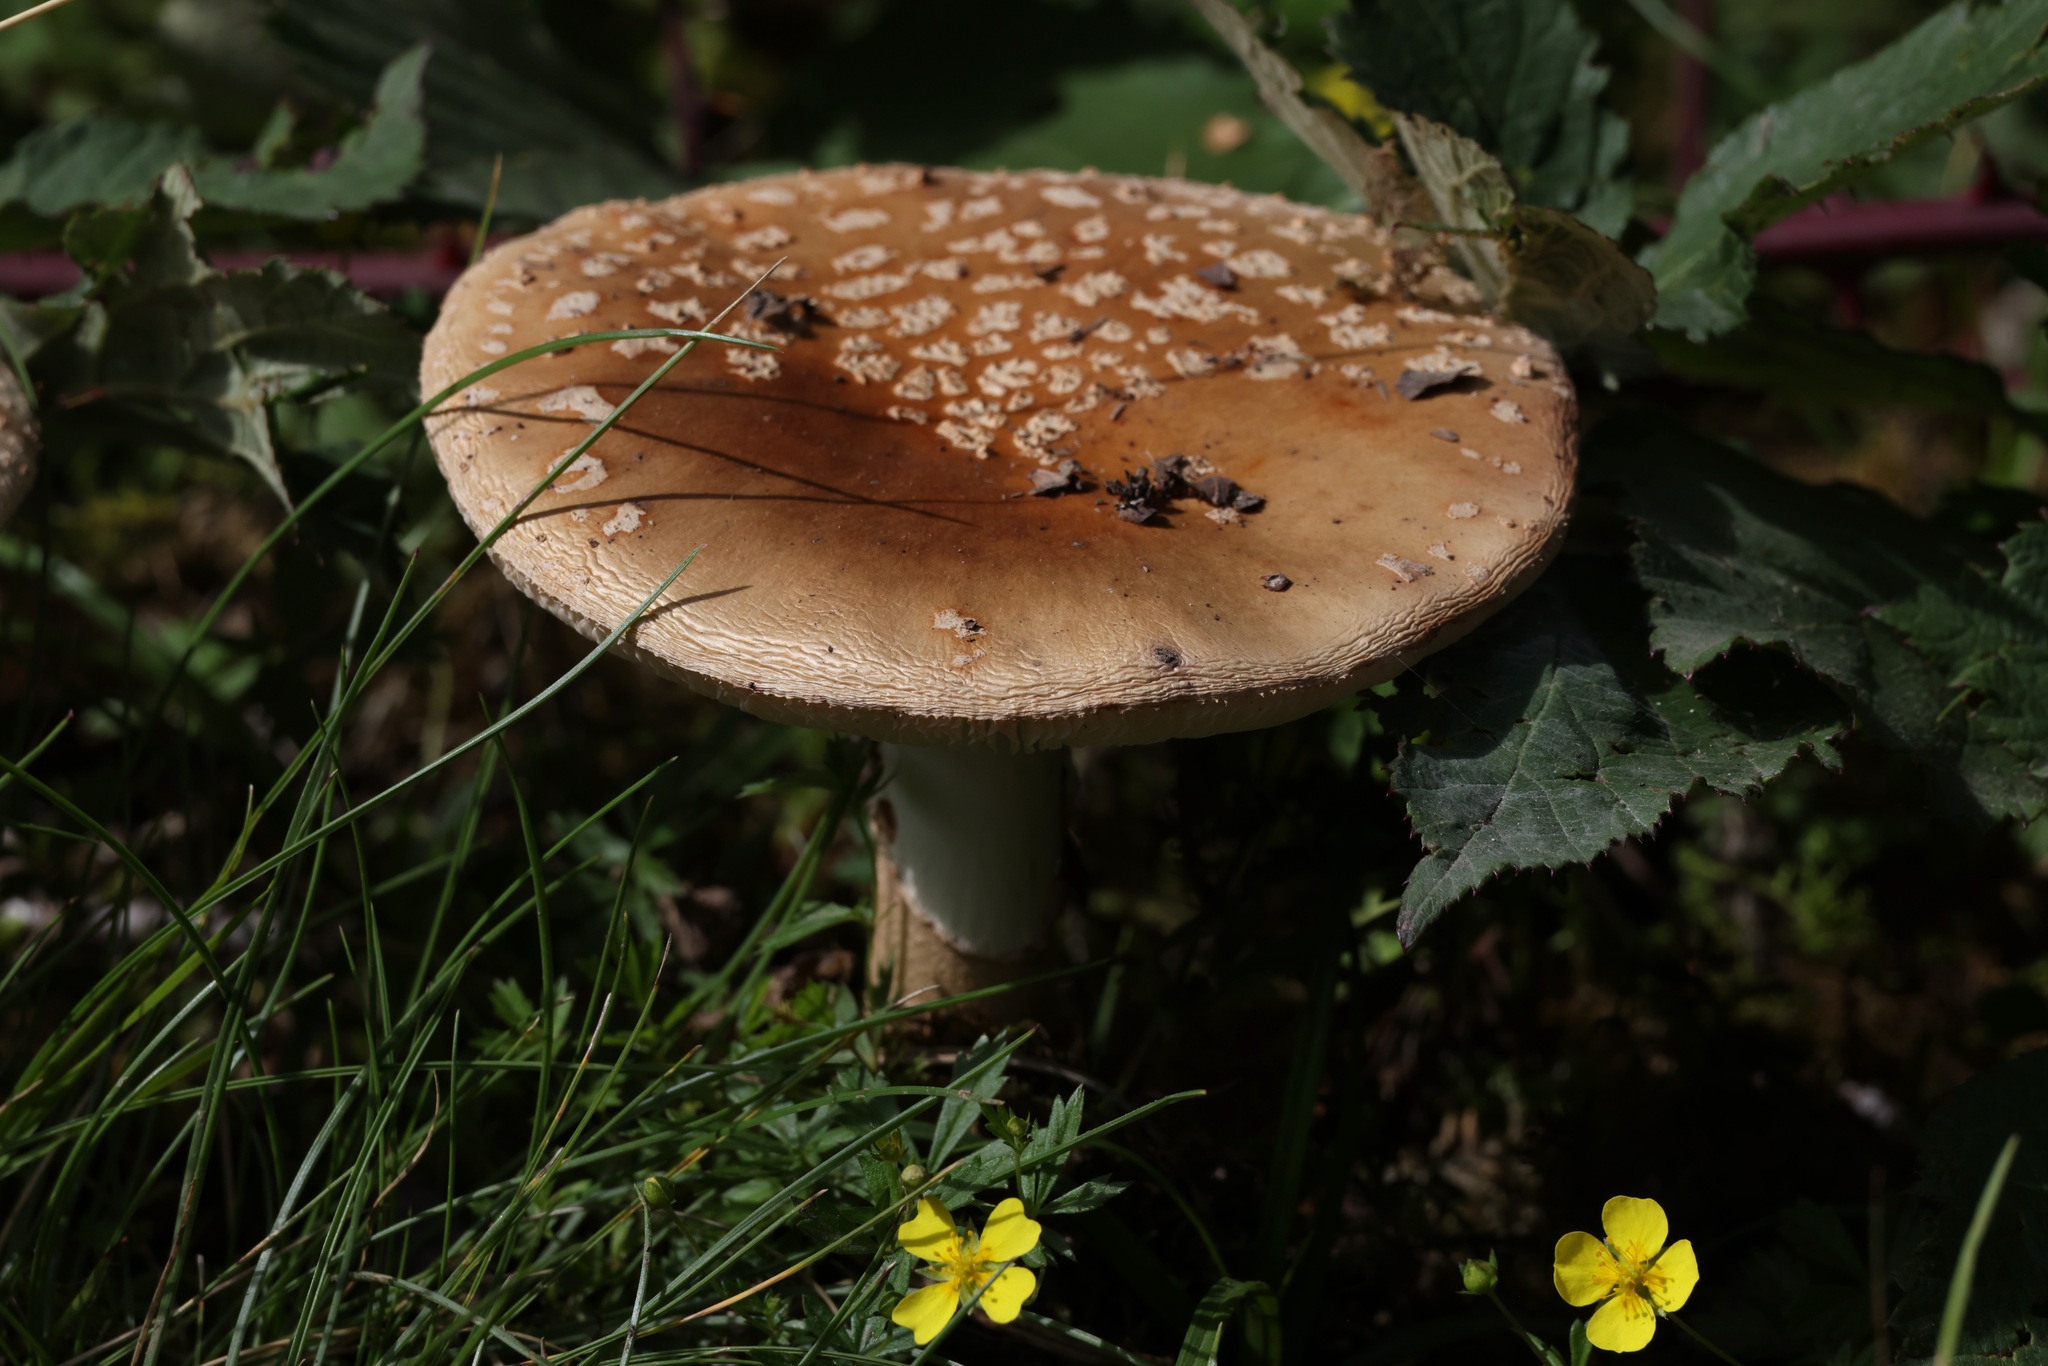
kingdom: Fungi
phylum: Basidiomycota
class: Agaricomycetes
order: Agaricales
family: Amanitaceae
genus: Amanita
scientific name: Amanita rubescens
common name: Blusher
